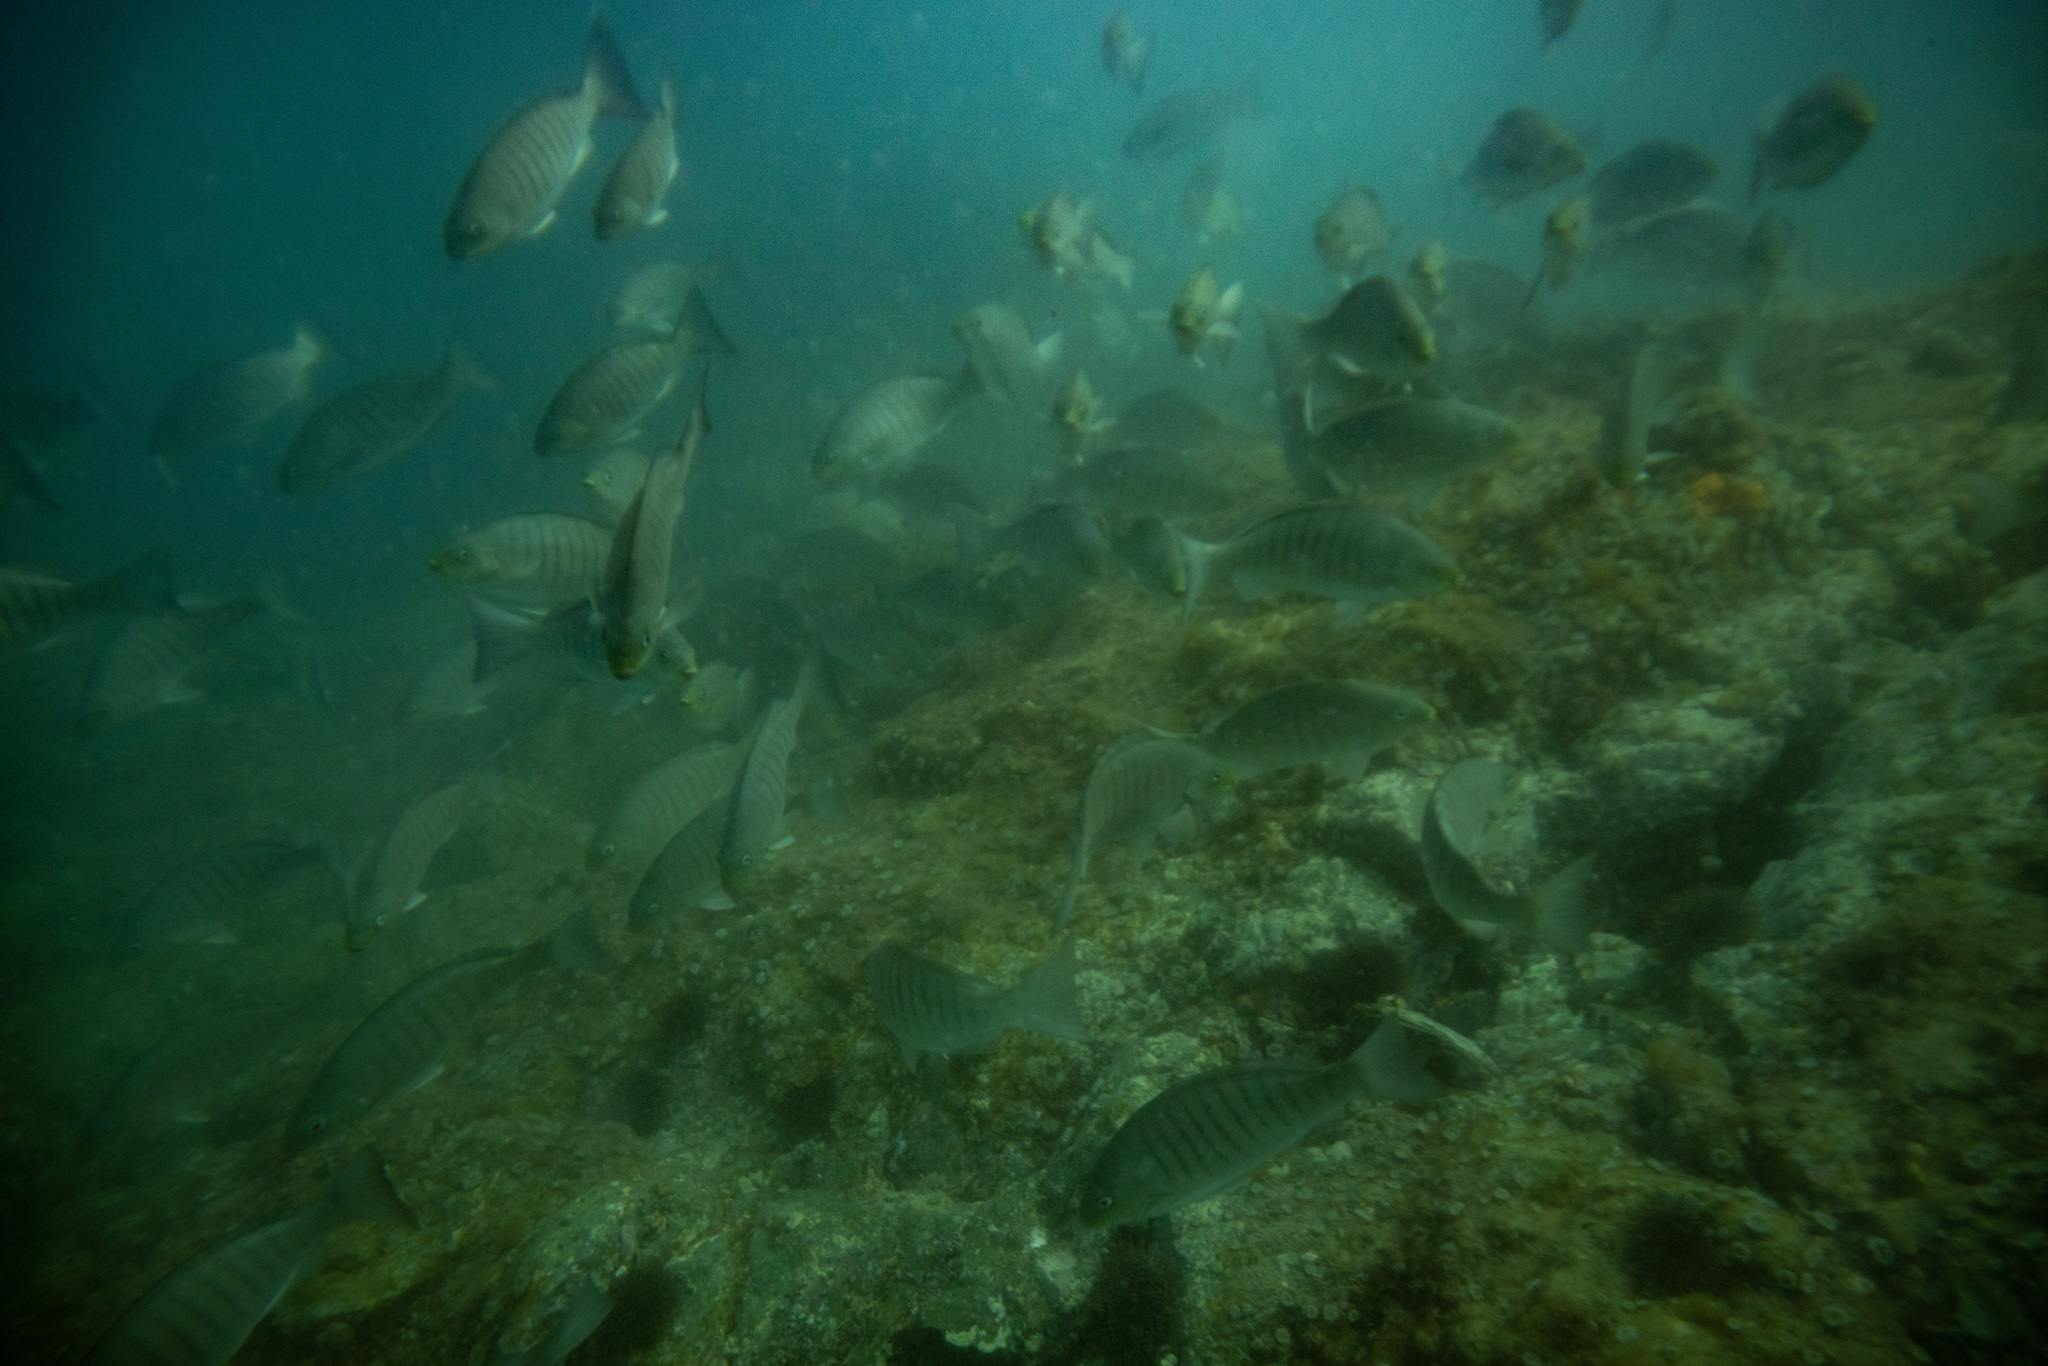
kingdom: Animalia
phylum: Chordata
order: Perciformes
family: Kyphosidae
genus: Girella
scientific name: Girella tricuspidata
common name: Parore
